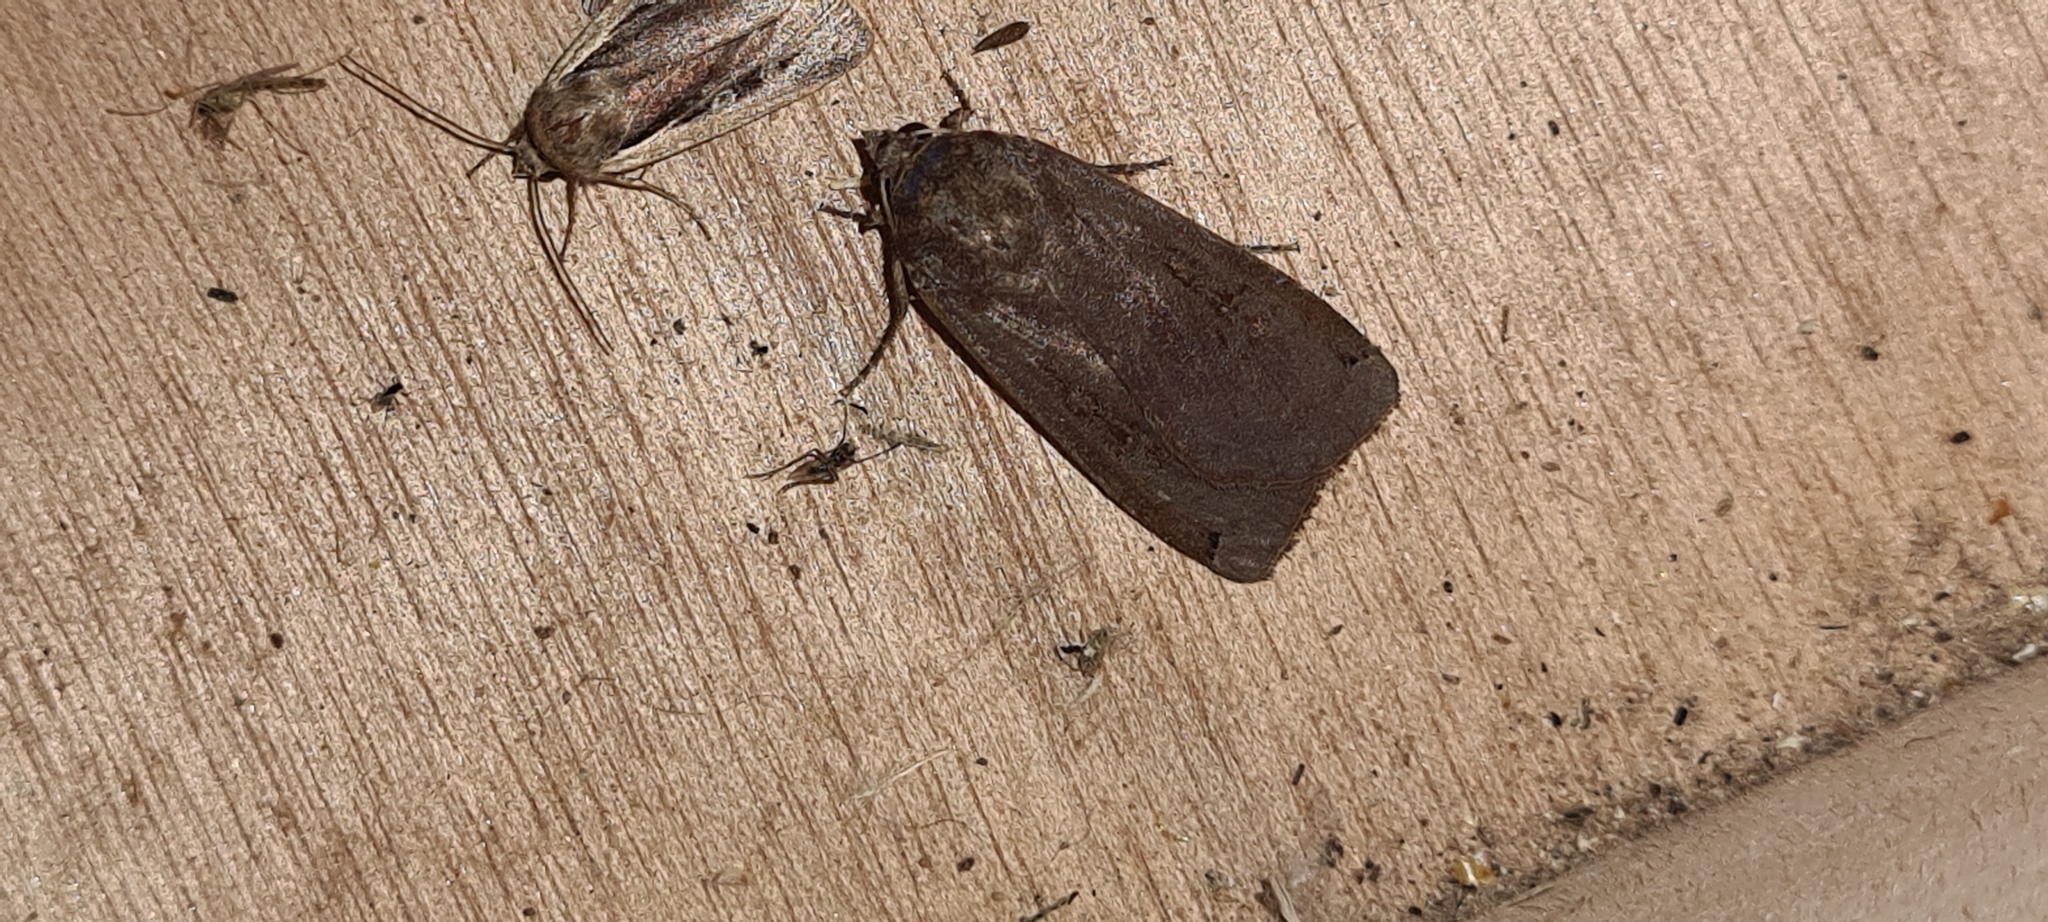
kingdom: Animalia
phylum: Arthropoda
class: Insecta
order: Lepidoptera
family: Noctuidae
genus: Noctua
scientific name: Noctua pronuba
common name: Large yellow underwing
